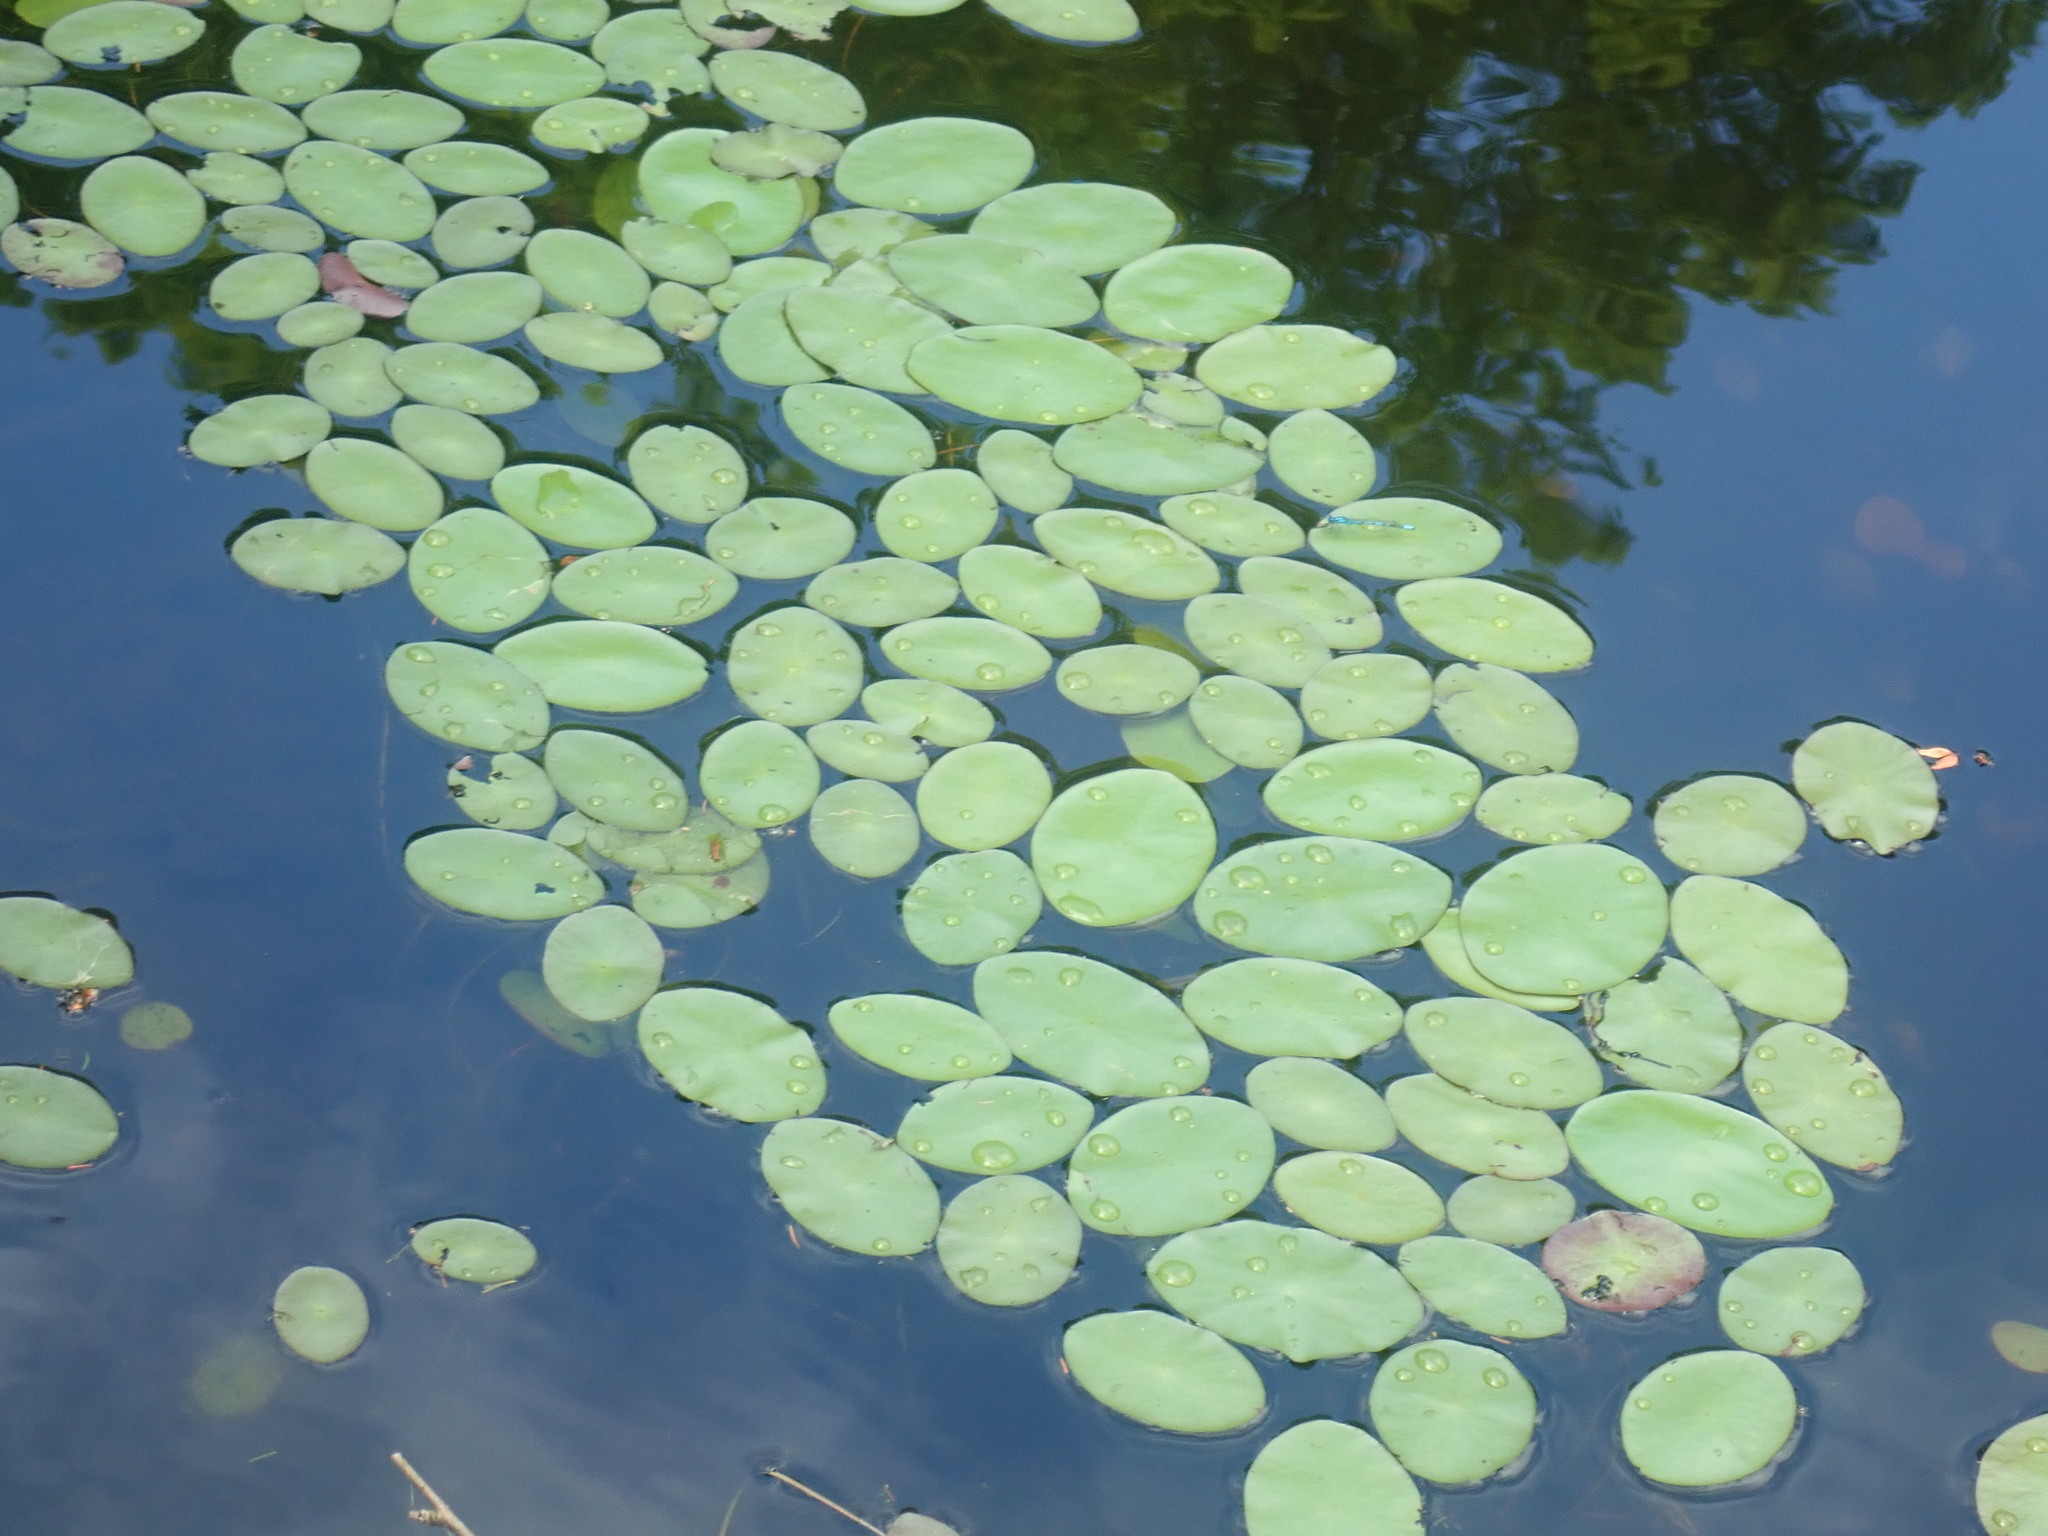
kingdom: Plantae
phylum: Tracheophyta
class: Magnoliopsida
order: Nymphaeales
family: Cabombaceae
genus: Brasenia
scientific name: Brasenia schreberi
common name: Water-shield
